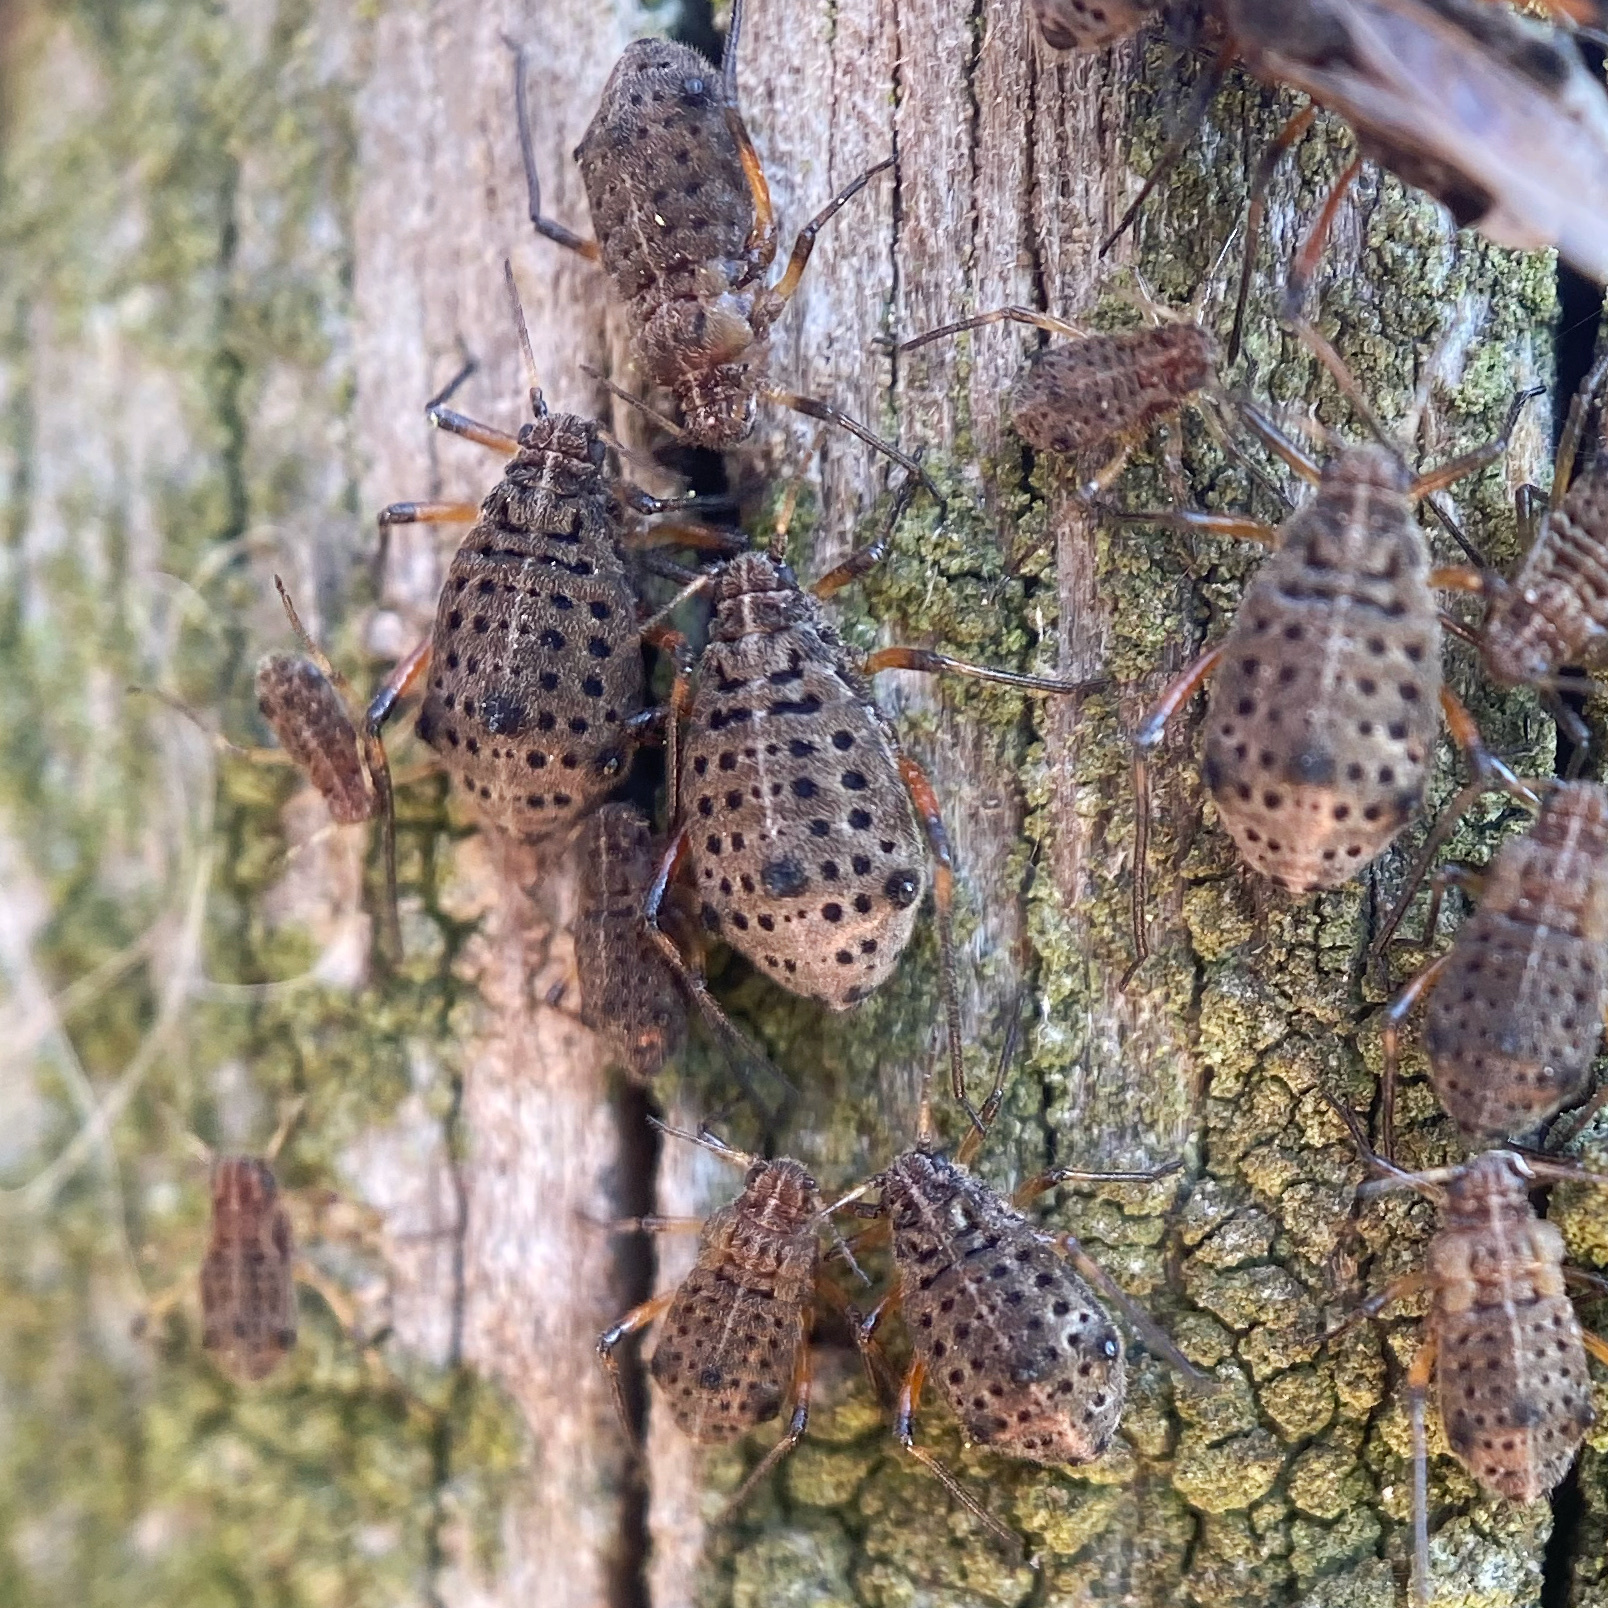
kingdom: Animalia
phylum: Arthropoda
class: Insecta
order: Hemiptera
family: Aphididae
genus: Tuberolachnus
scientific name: Tuberolachnus salignus
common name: Giant willow aphid
